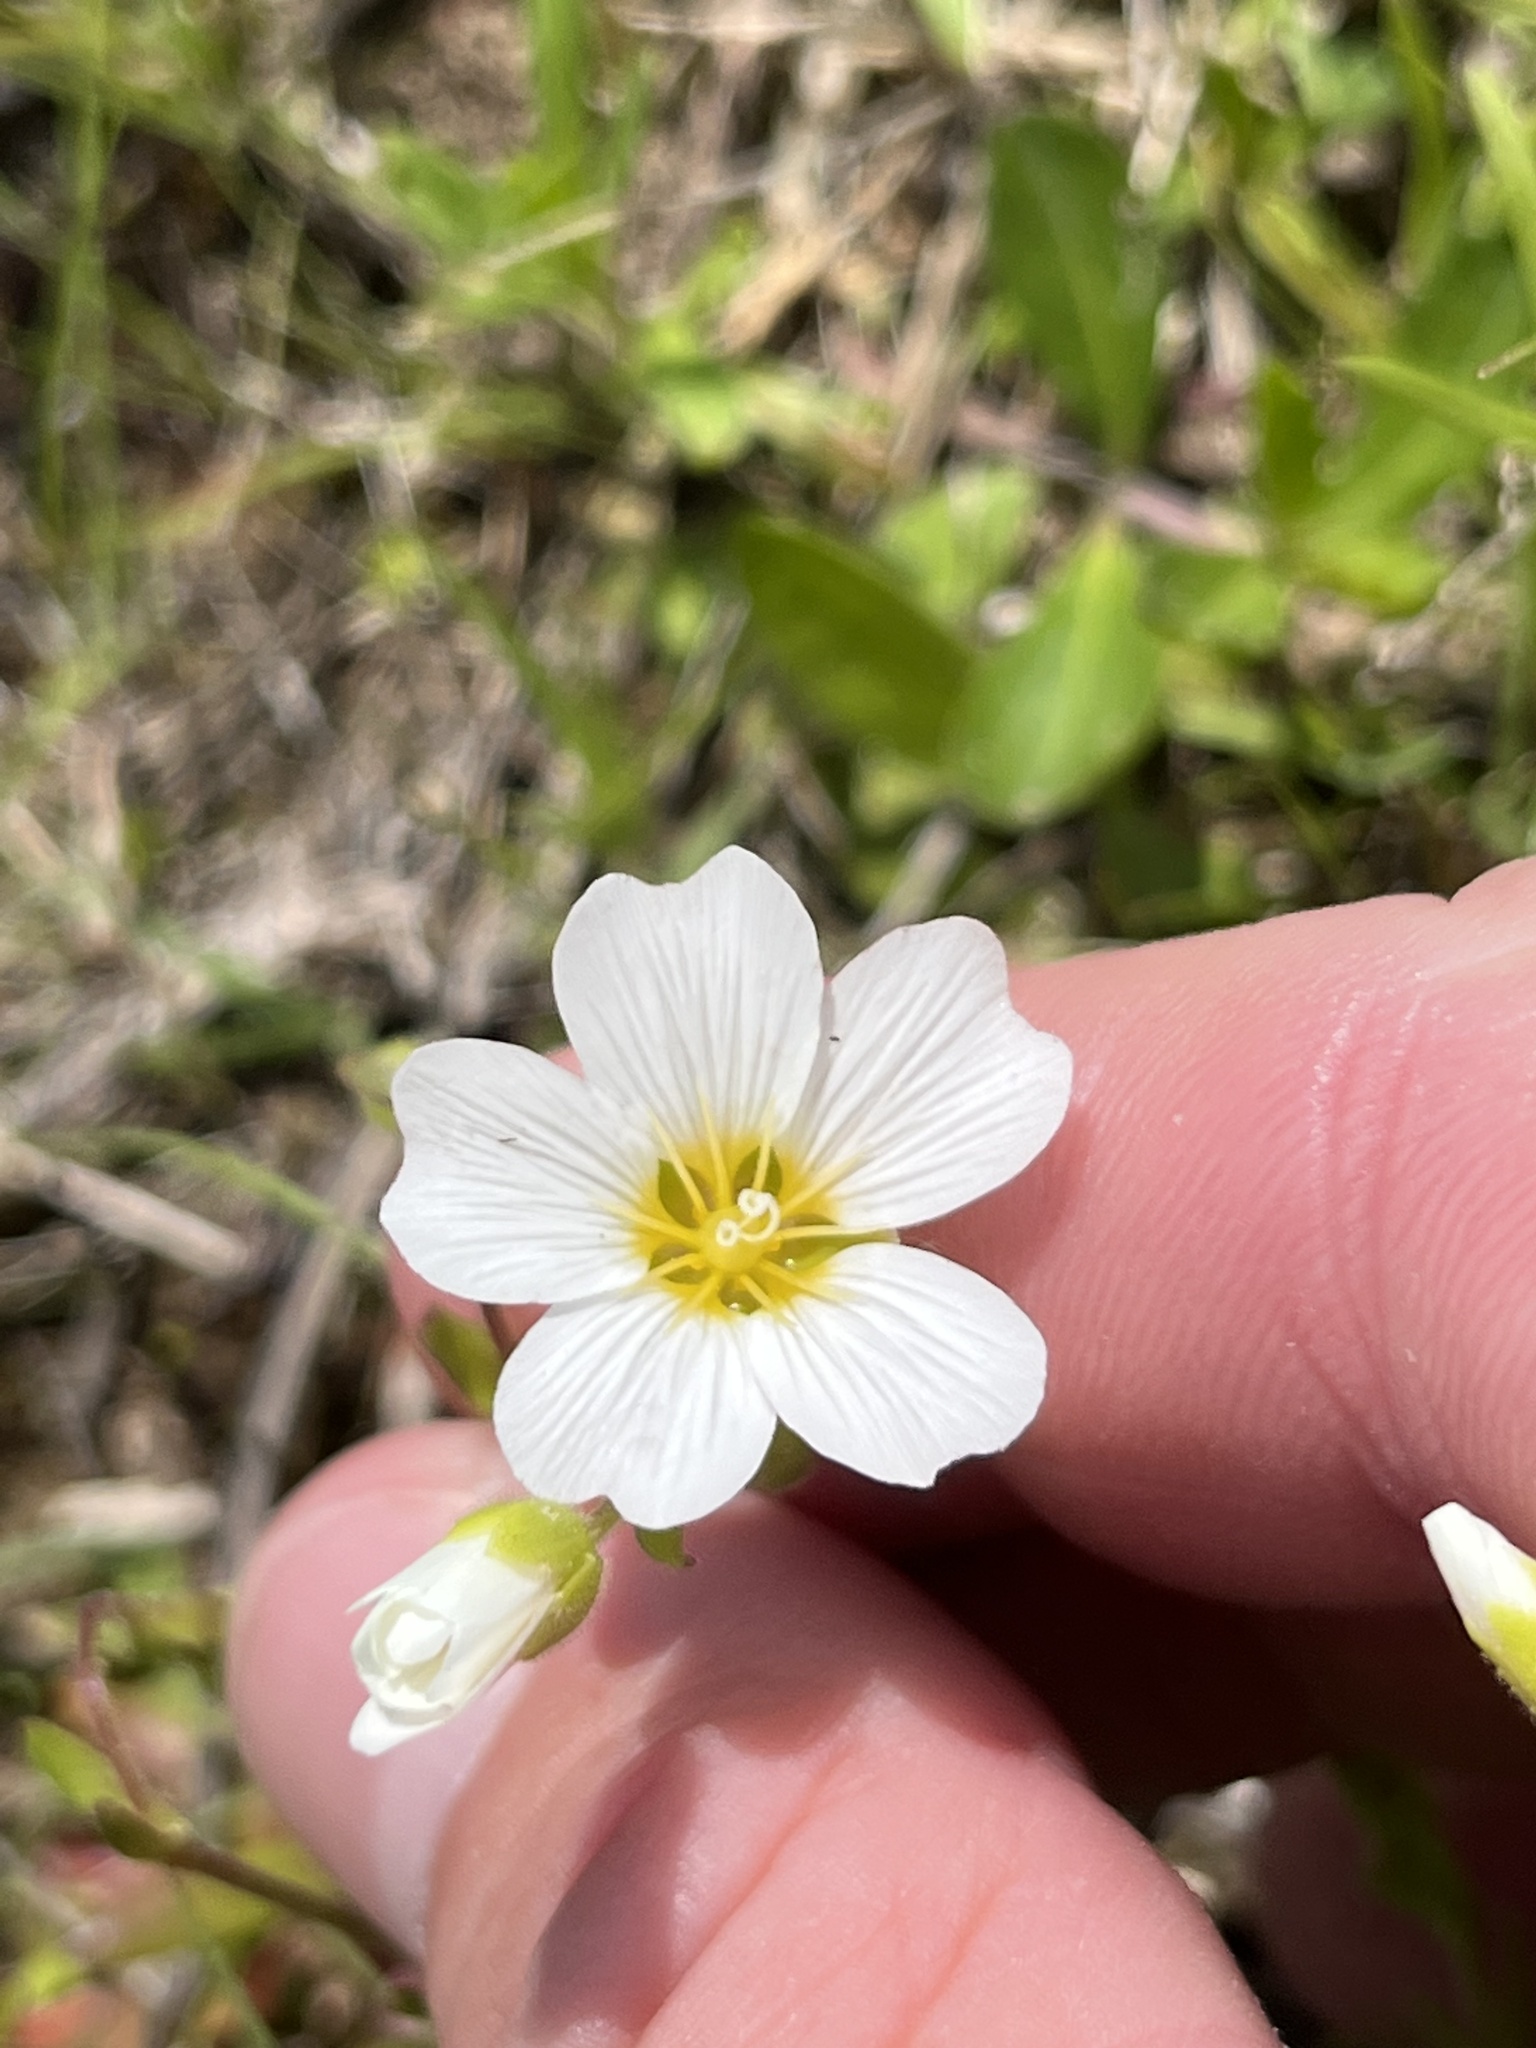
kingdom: Plantae
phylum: Tracheophyta
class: Magnoliopsida
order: Caryophyllales
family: Caryophyllaceae
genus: Geocarpon
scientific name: Geocarpon nuttallii
